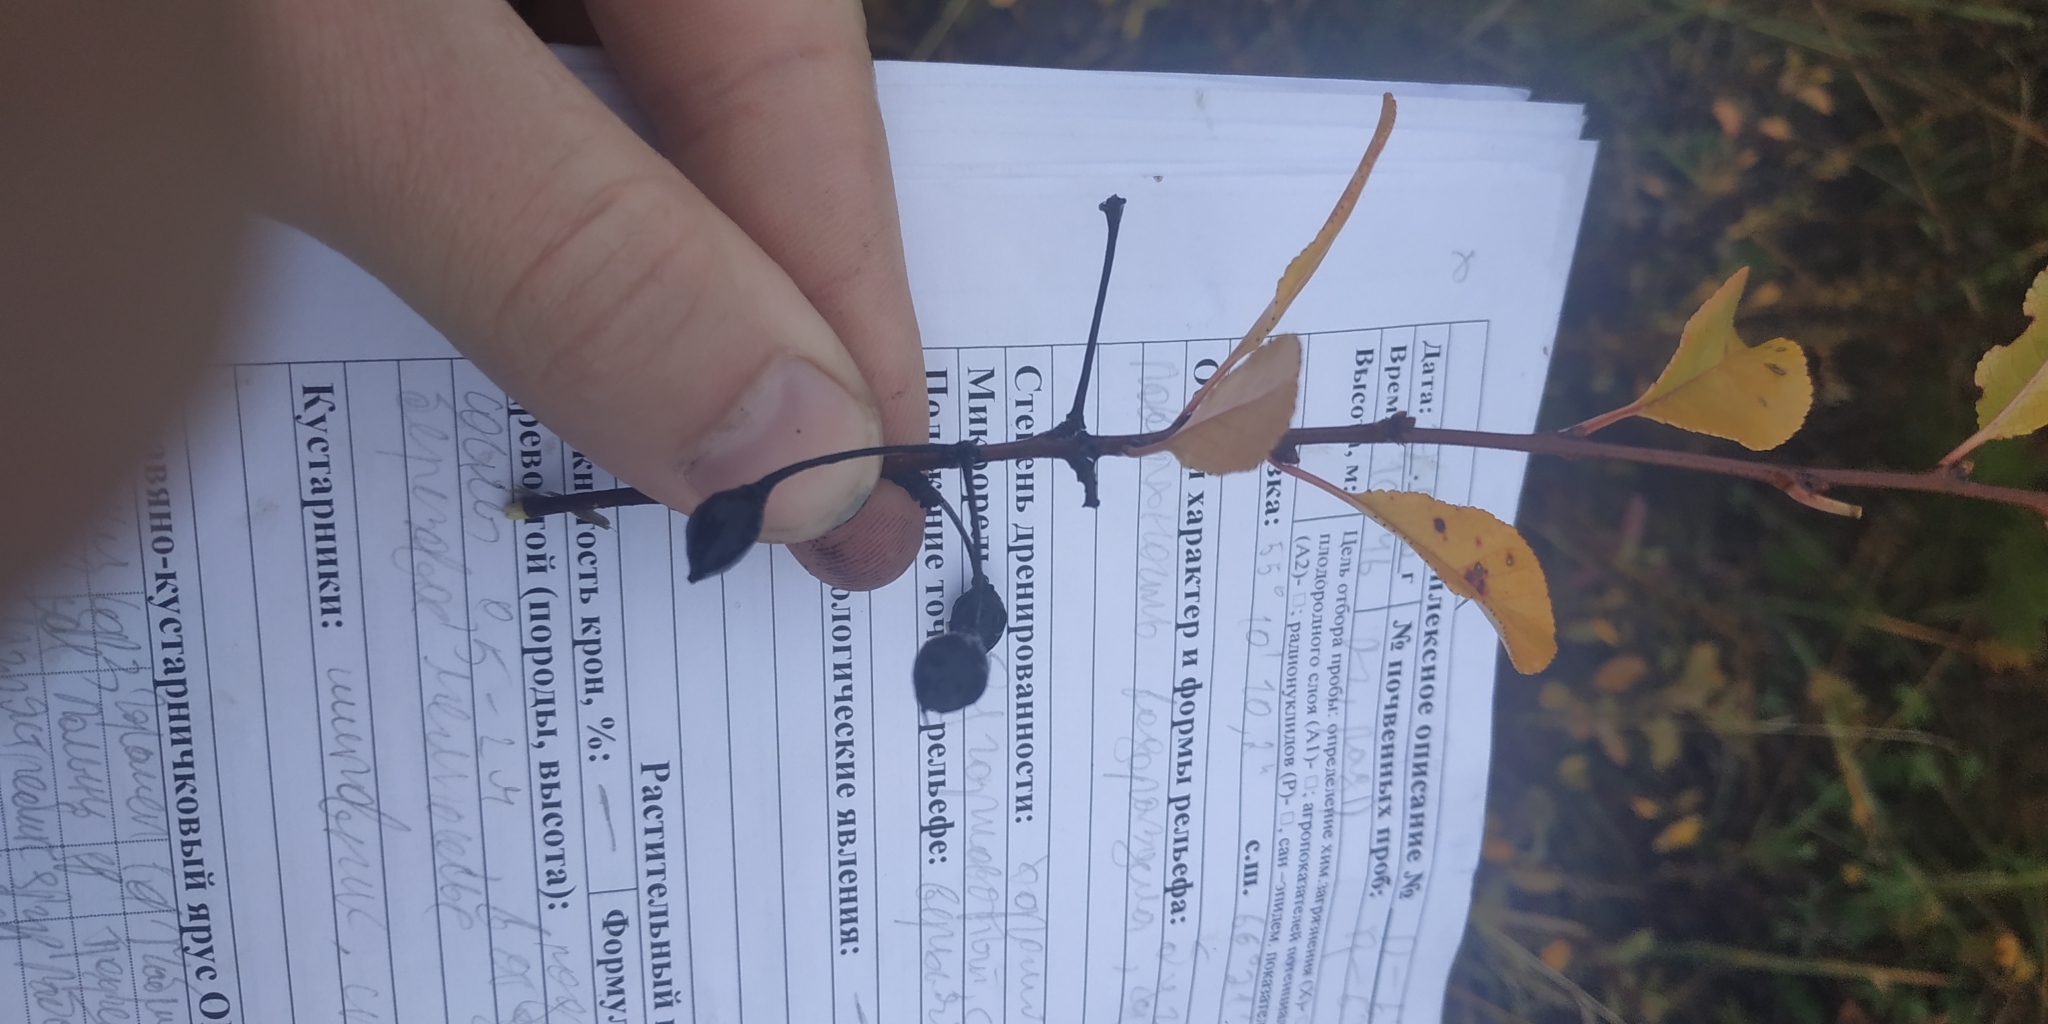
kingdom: Plantae
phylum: Tracheophyta
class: Magnoliopsida
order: Rosales
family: Rosaceae
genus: Prunus
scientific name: Prunus fruticosa
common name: European dwarf cherry
